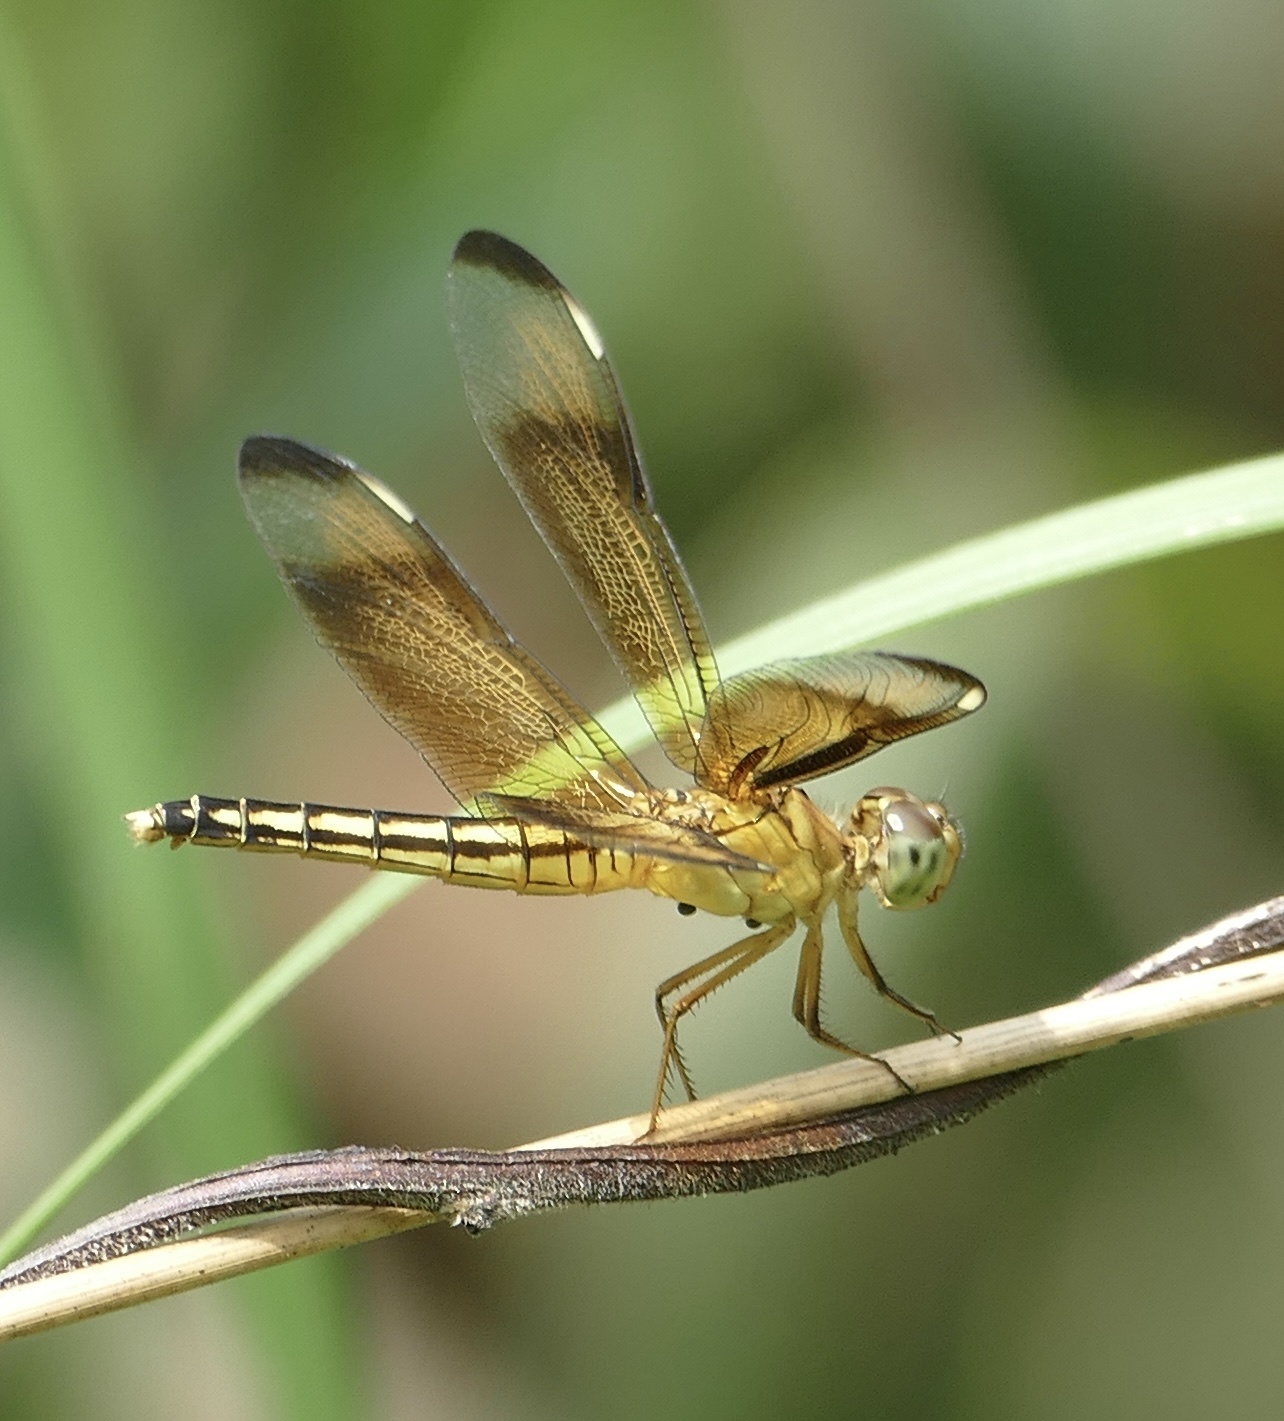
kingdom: Animalia
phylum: Arthropoda
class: Insecta
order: Odonata
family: Libellulidae
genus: Neurothemis
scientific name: Neurothemis manadensis
